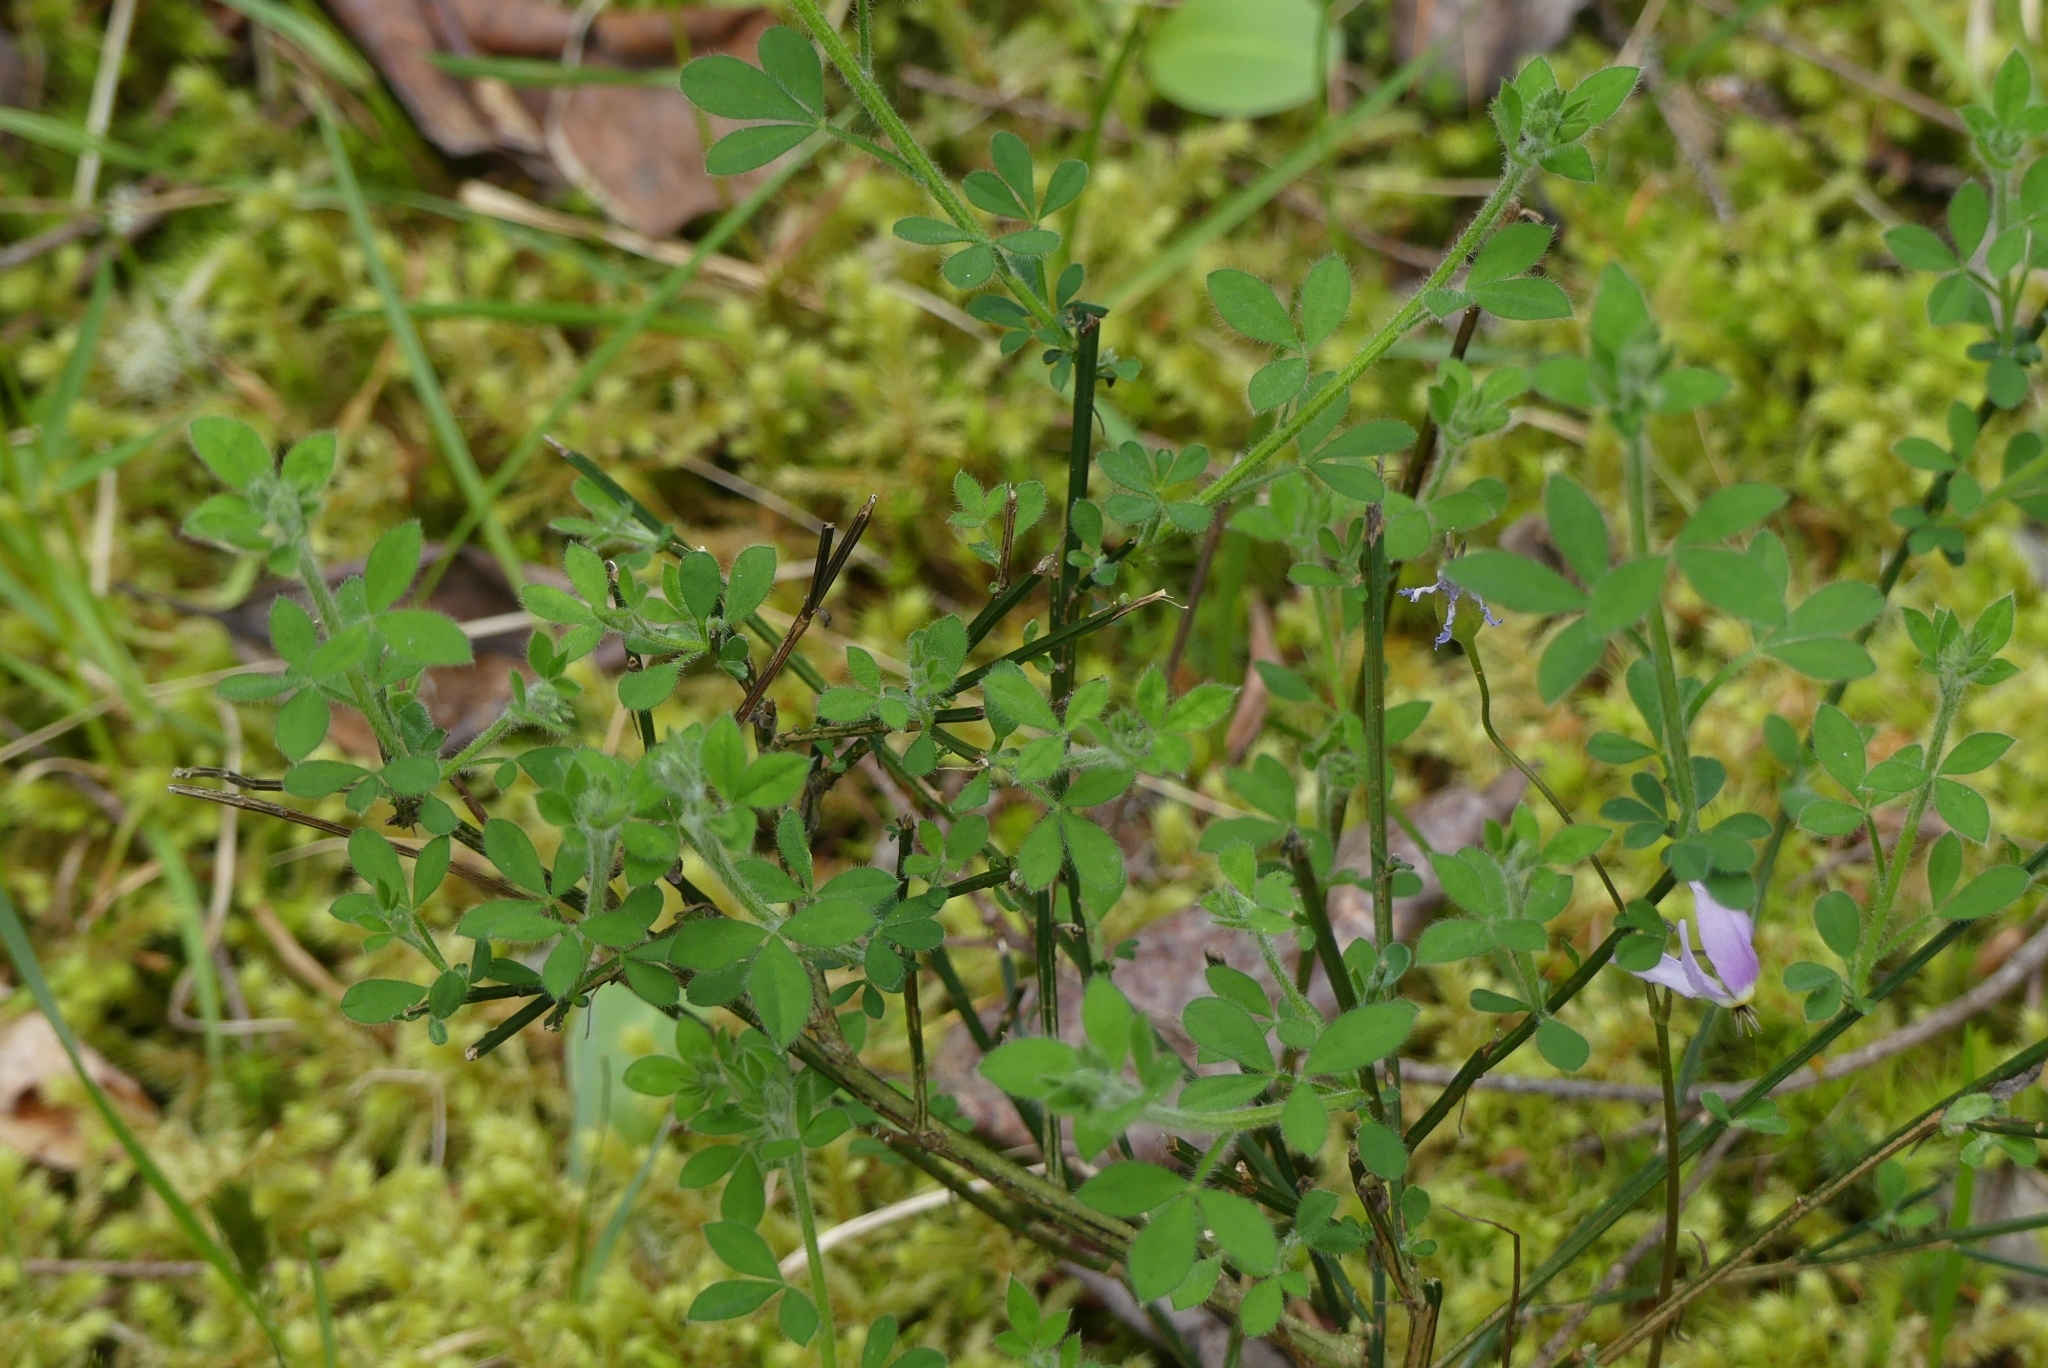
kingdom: Plantae
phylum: Tracheophyta
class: Magnoliopsida
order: Fabales
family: Fabaceae
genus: Cytisus
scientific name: Cytisus scoparius
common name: Scotch broom
